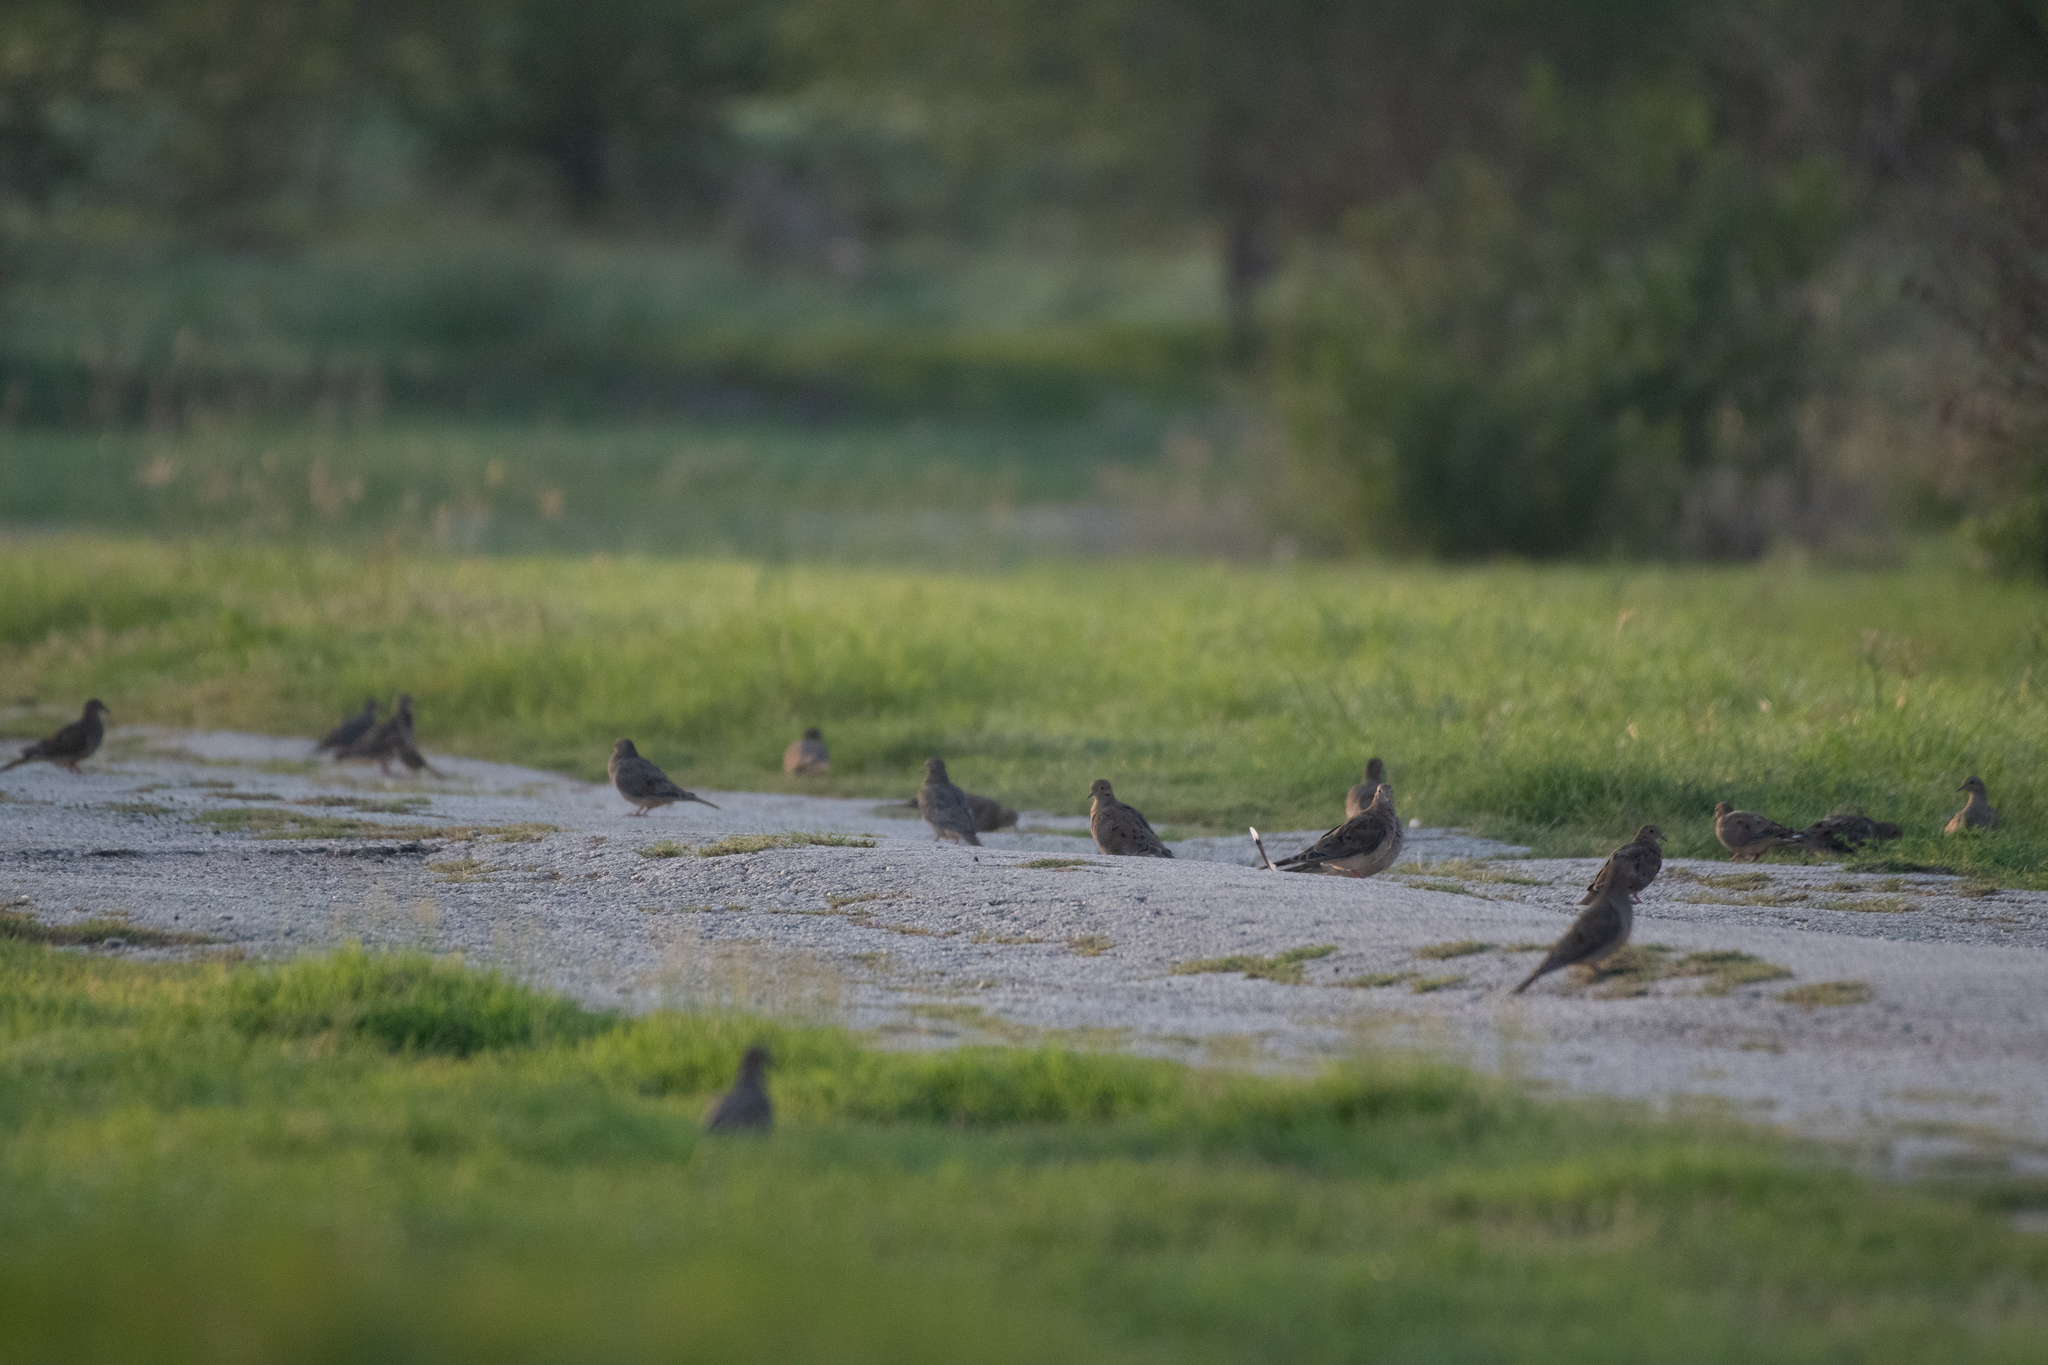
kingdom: Animalia
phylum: Chordata
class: Aves
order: Columbiformes
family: Columbidae
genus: Zenaida
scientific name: Zenaida macroura
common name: Mourning dove
